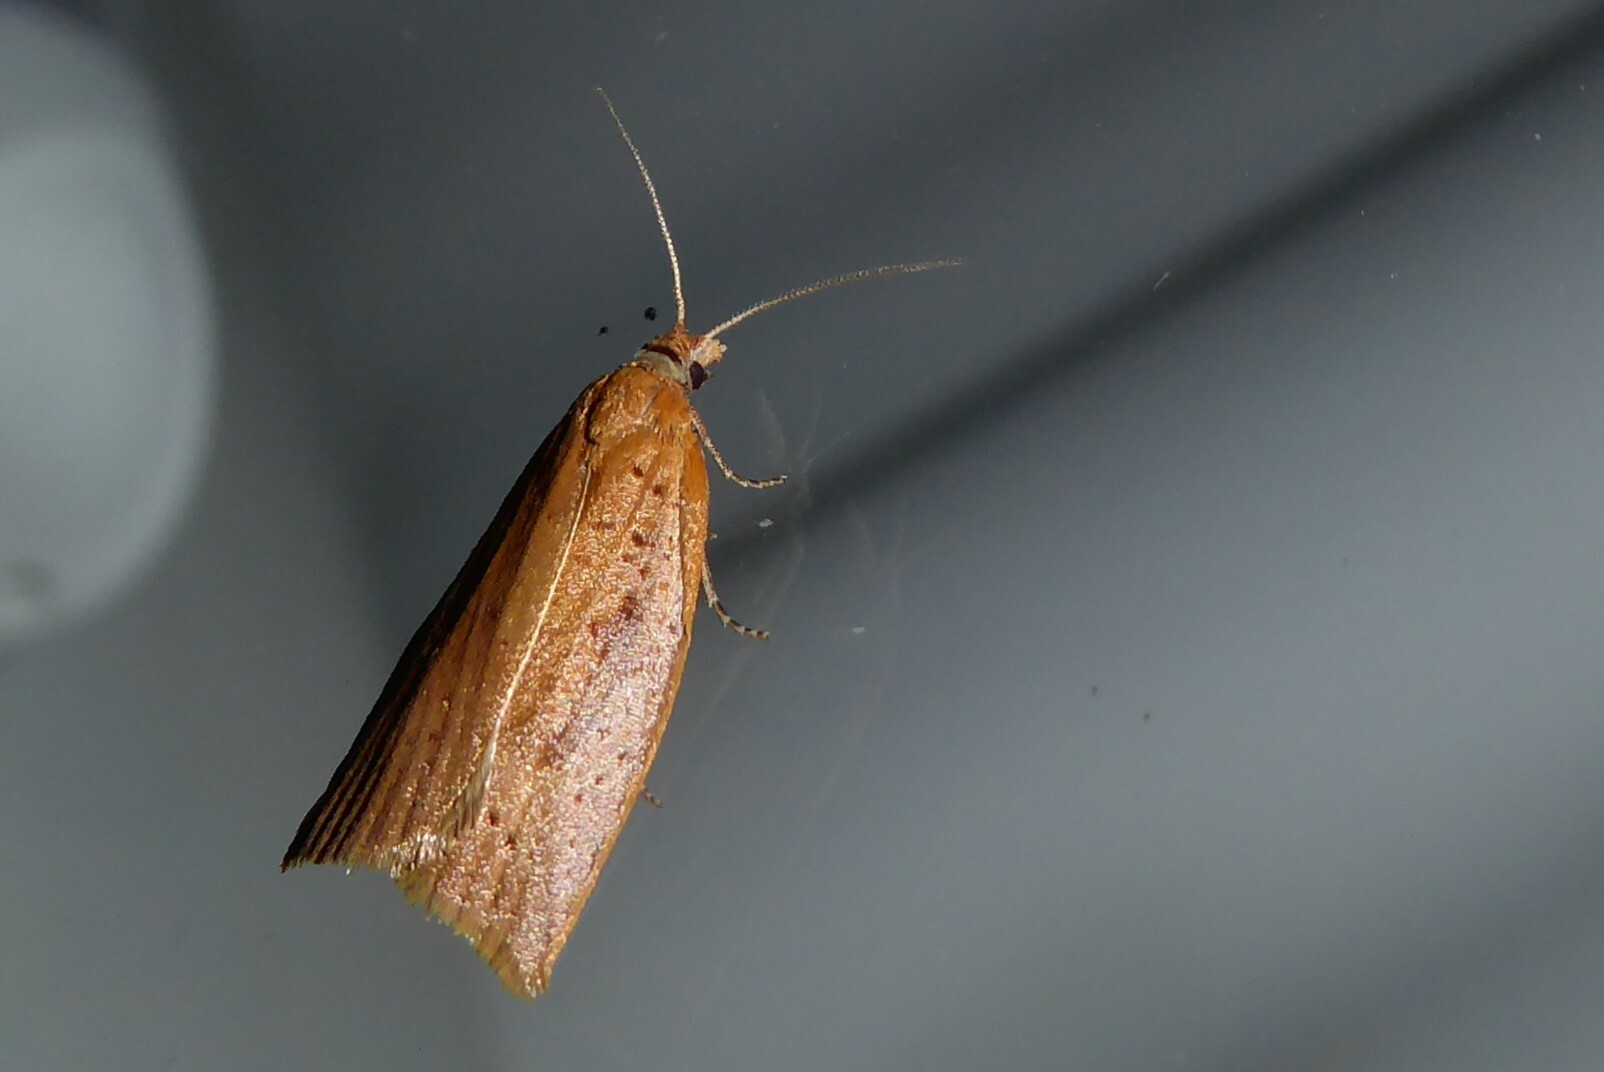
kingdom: Animalia
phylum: Arthropoda
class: Insecta
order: Lepidoptera
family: Tortricidae
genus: Apoctena
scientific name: Apoctena conditana
